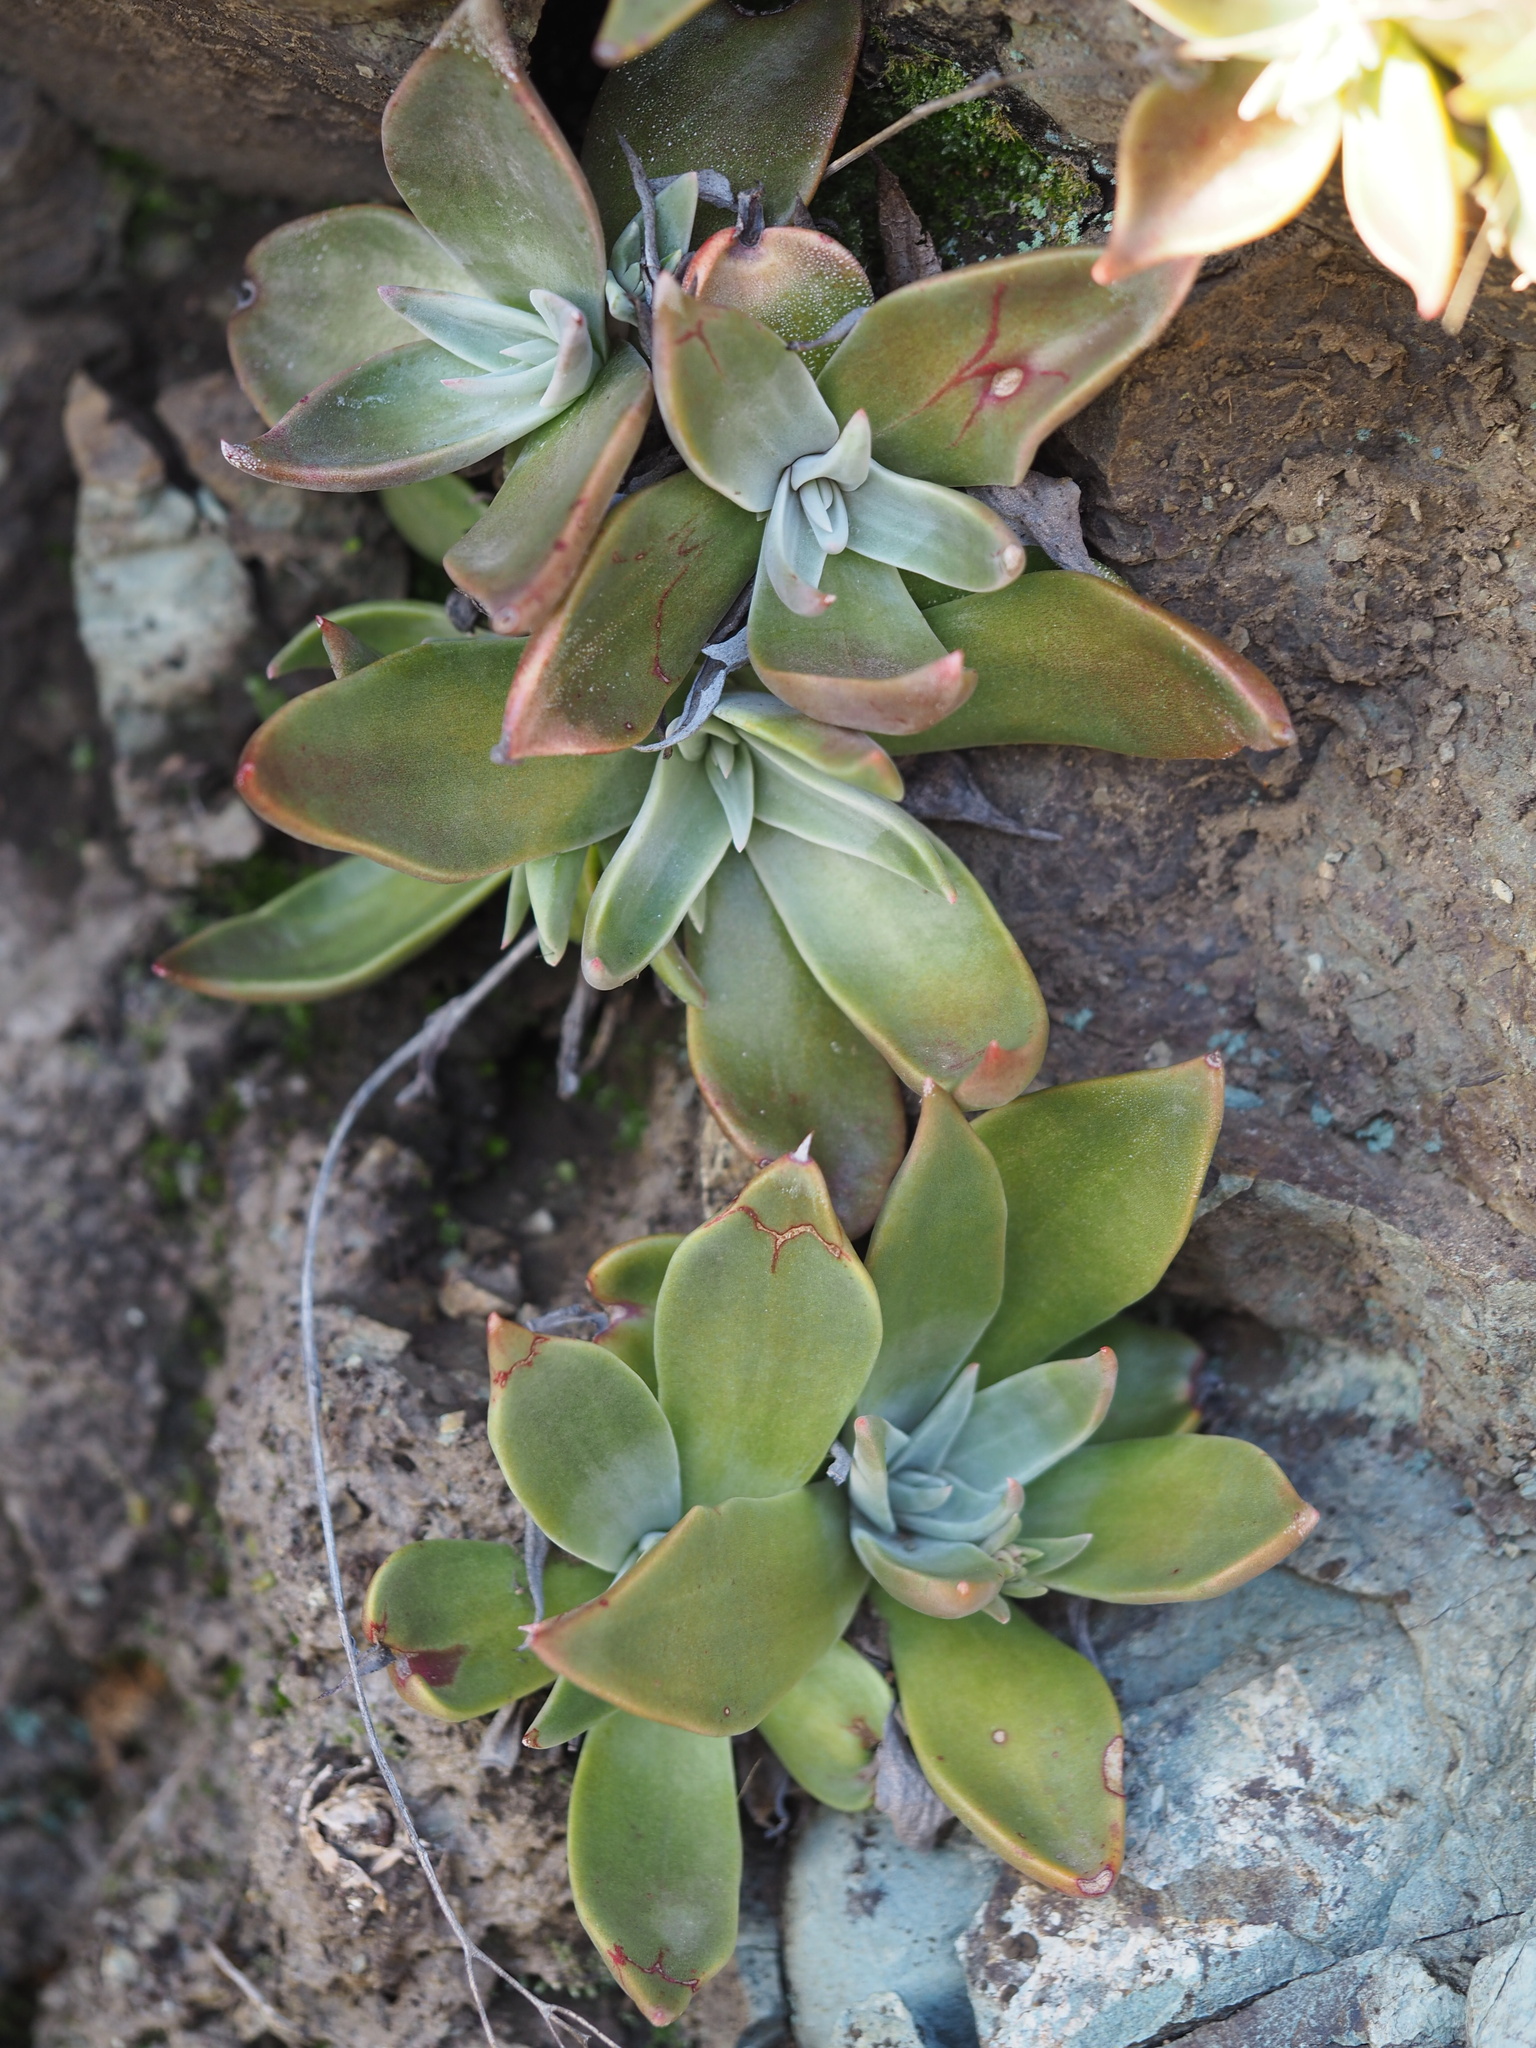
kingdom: Plantae
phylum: Tracheophyta
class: Magnoliopsida
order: Saxifragales
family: Crassulaceae
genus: Dudleya
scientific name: Dudleya cymosa
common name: Canyon dudleya
